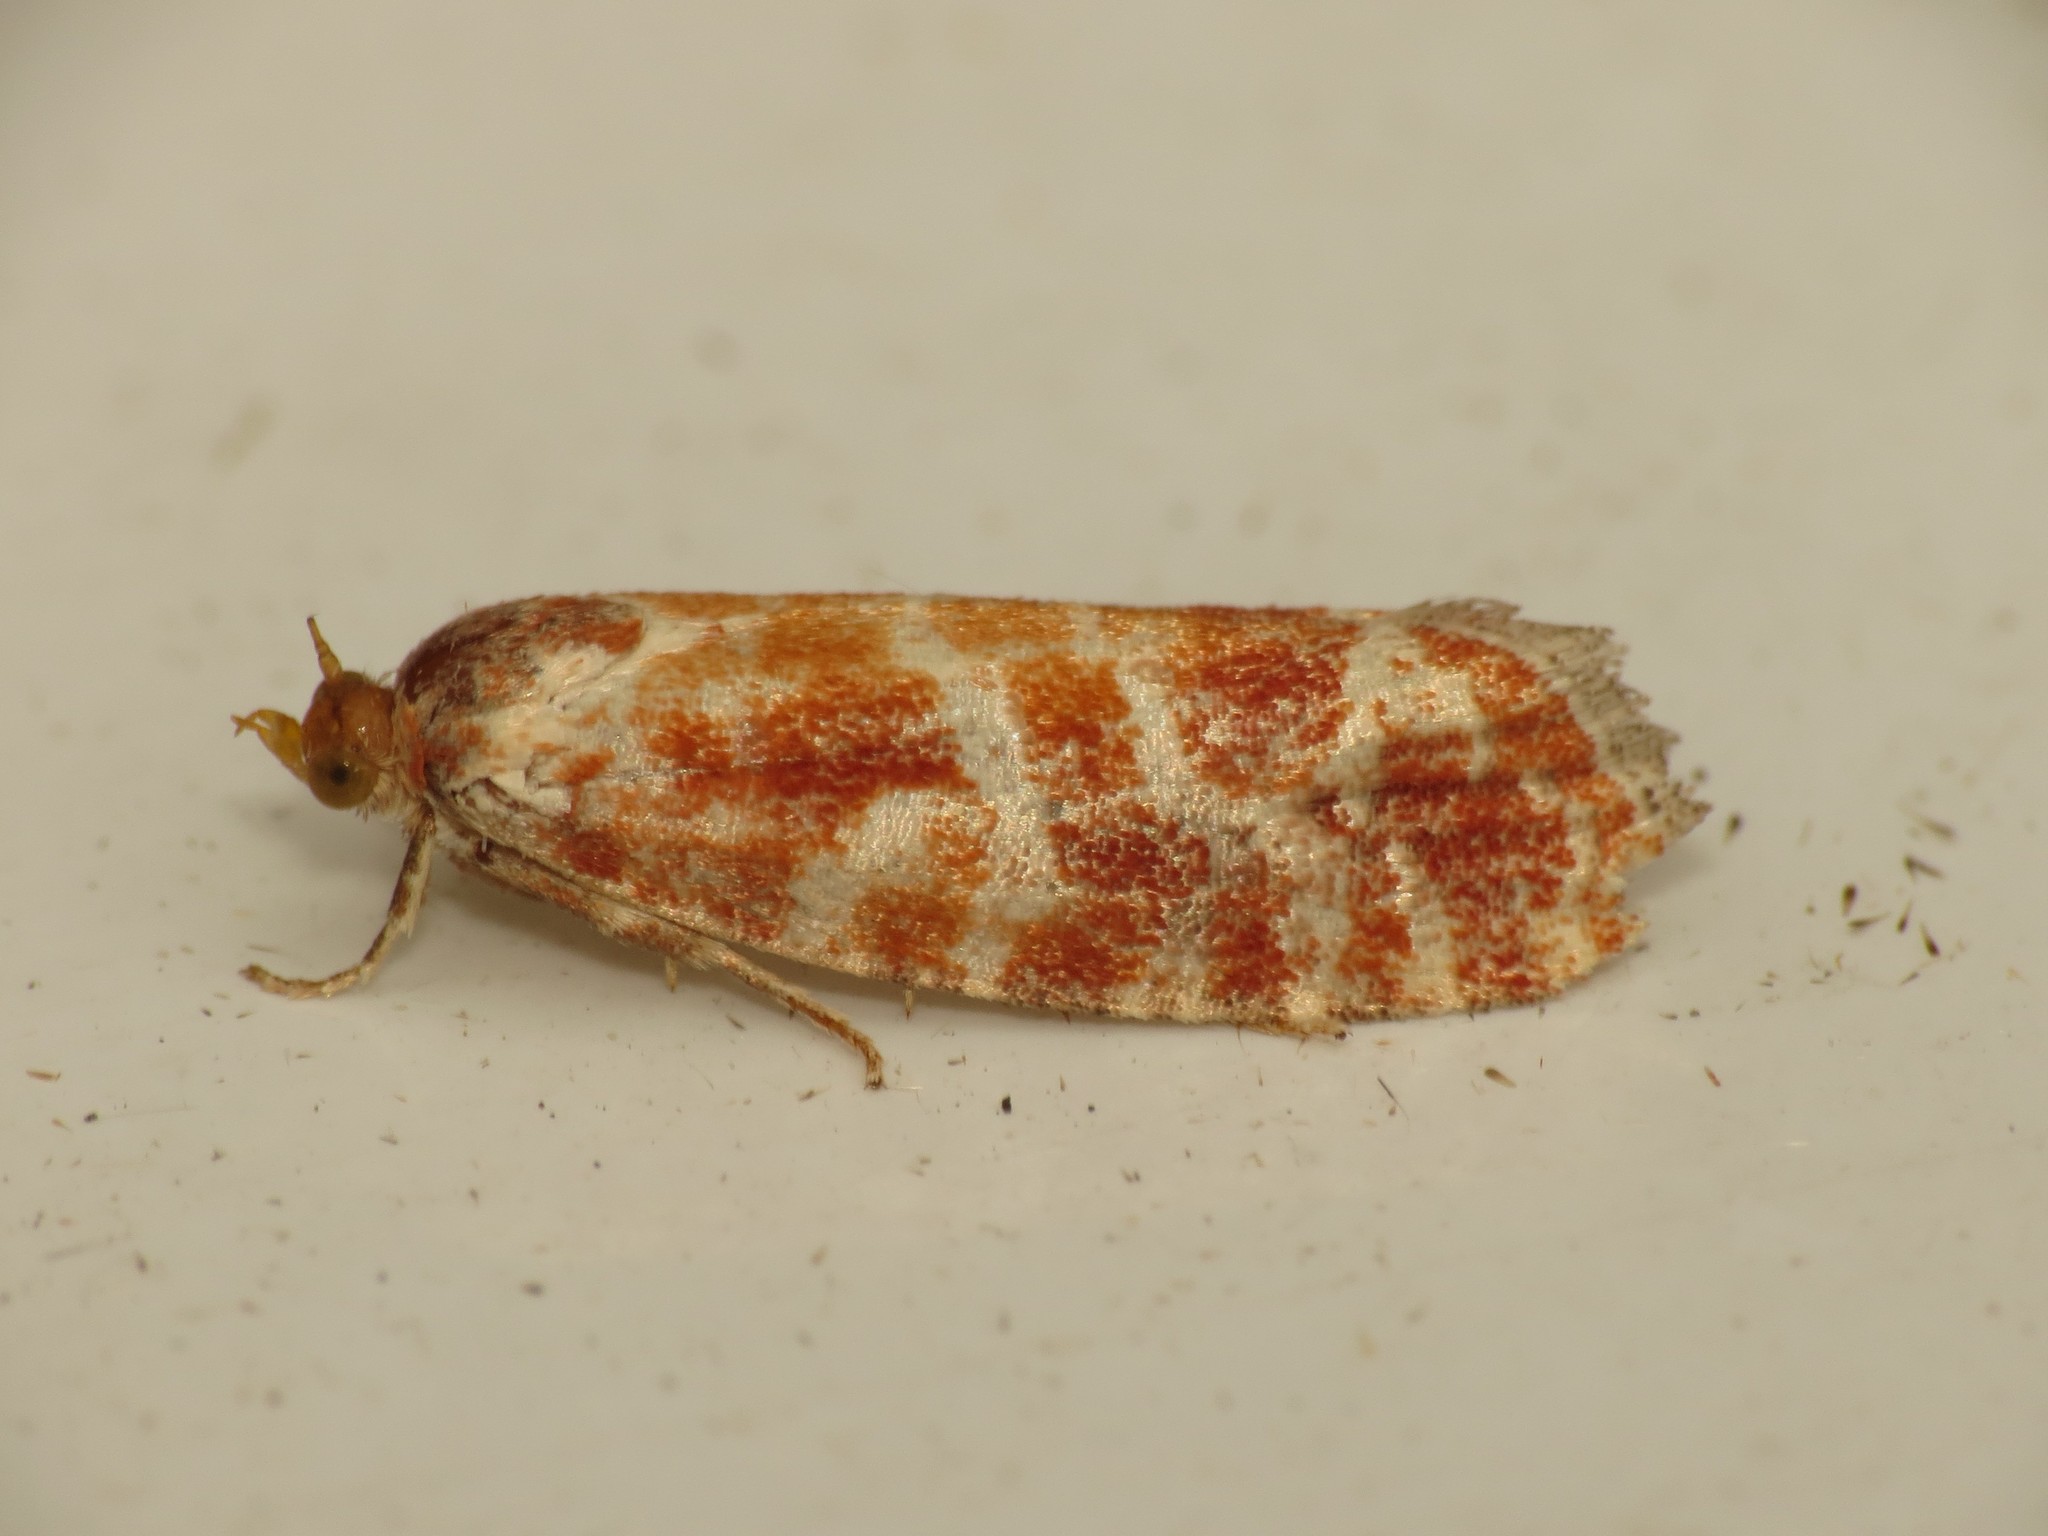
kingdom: Animalia
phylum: Arthropoda
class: Insecta
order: Lepidoptera
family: Tortricidae
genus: Rhyacionia
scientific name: Rhyacionia pinicolana
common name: Orange-spotted shoot
